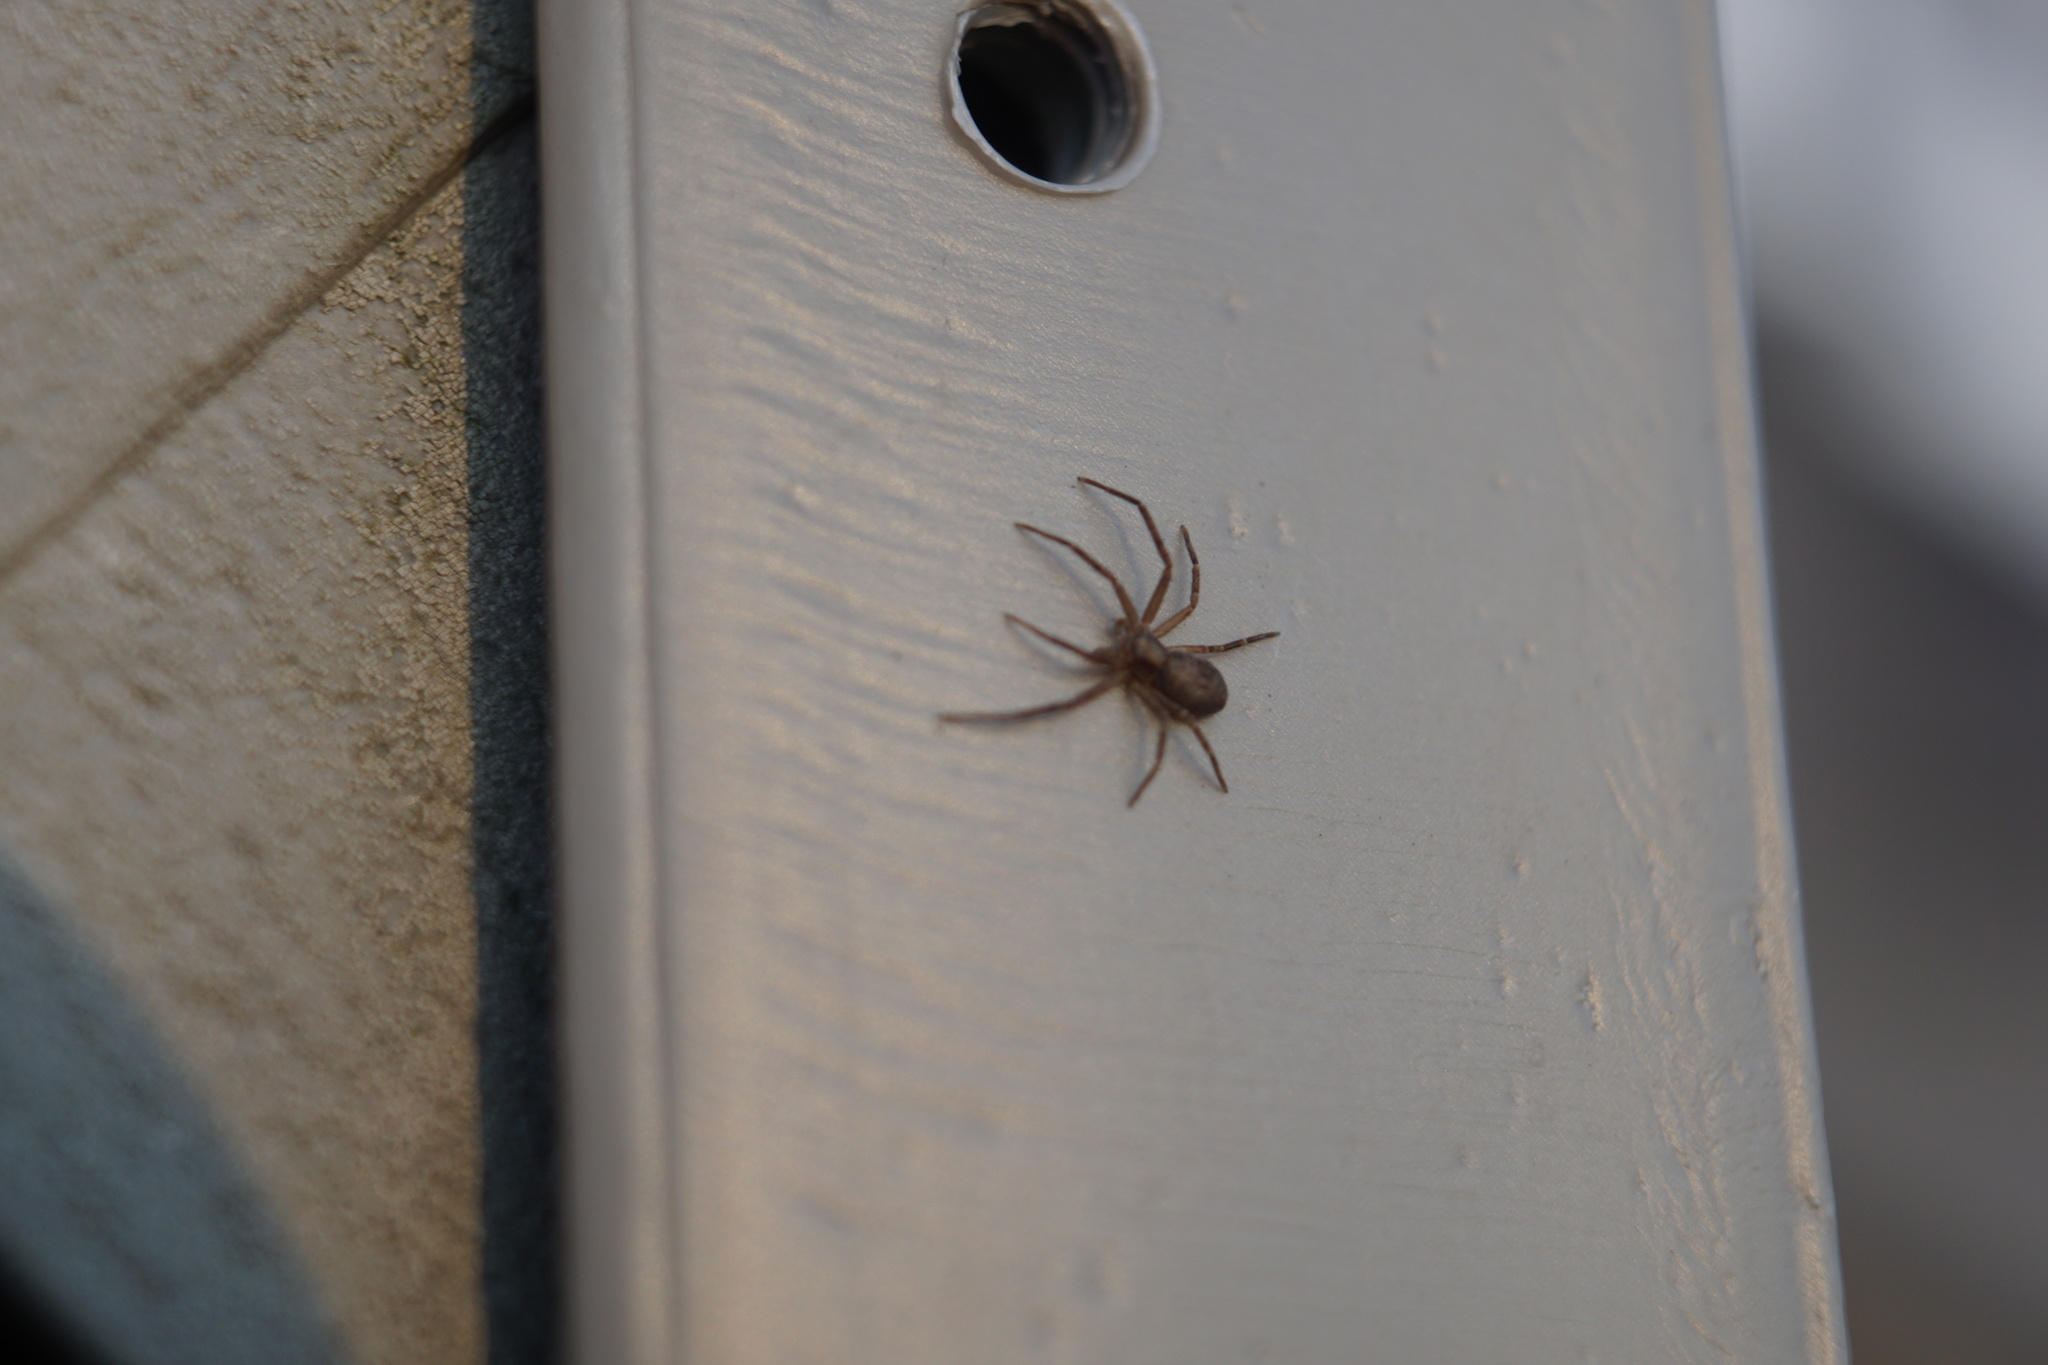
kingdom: Animalia
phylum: Arthropoda
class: Arachnida
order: Araneae
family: Philodromidae
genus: Philodromus
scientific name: Philodromus
